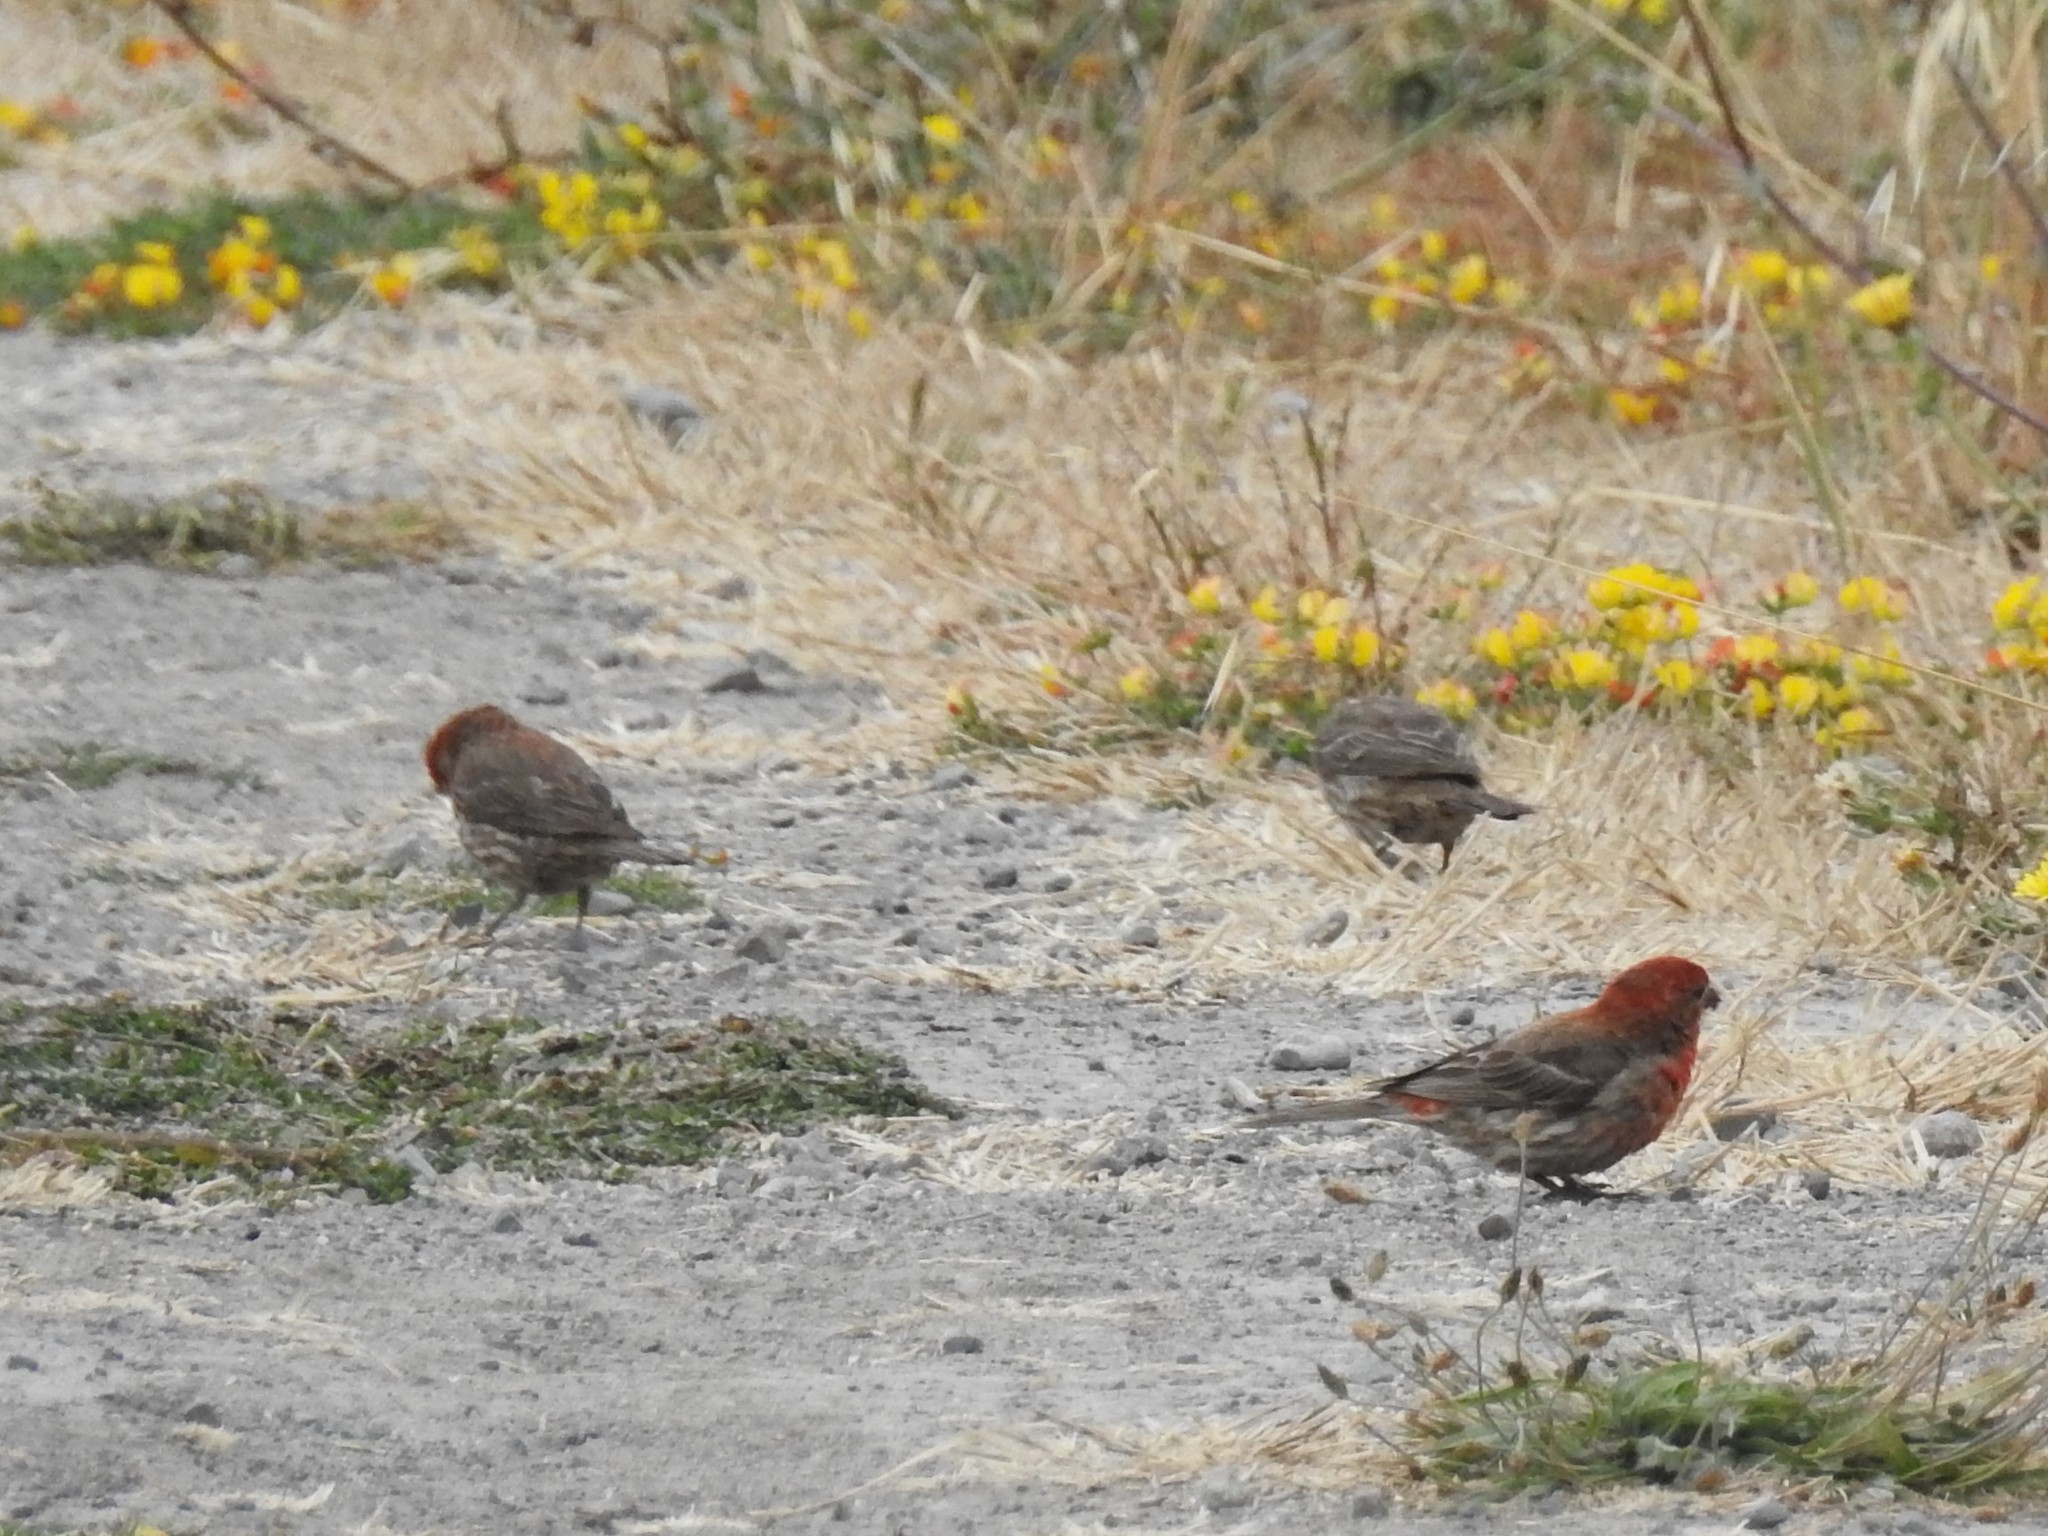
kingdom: Animalia
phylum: Chordata
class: Aves
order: Passeriformes
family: Fringillidae
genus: Haemorhous
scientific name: Haemorhous mexicanus
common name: House finch
